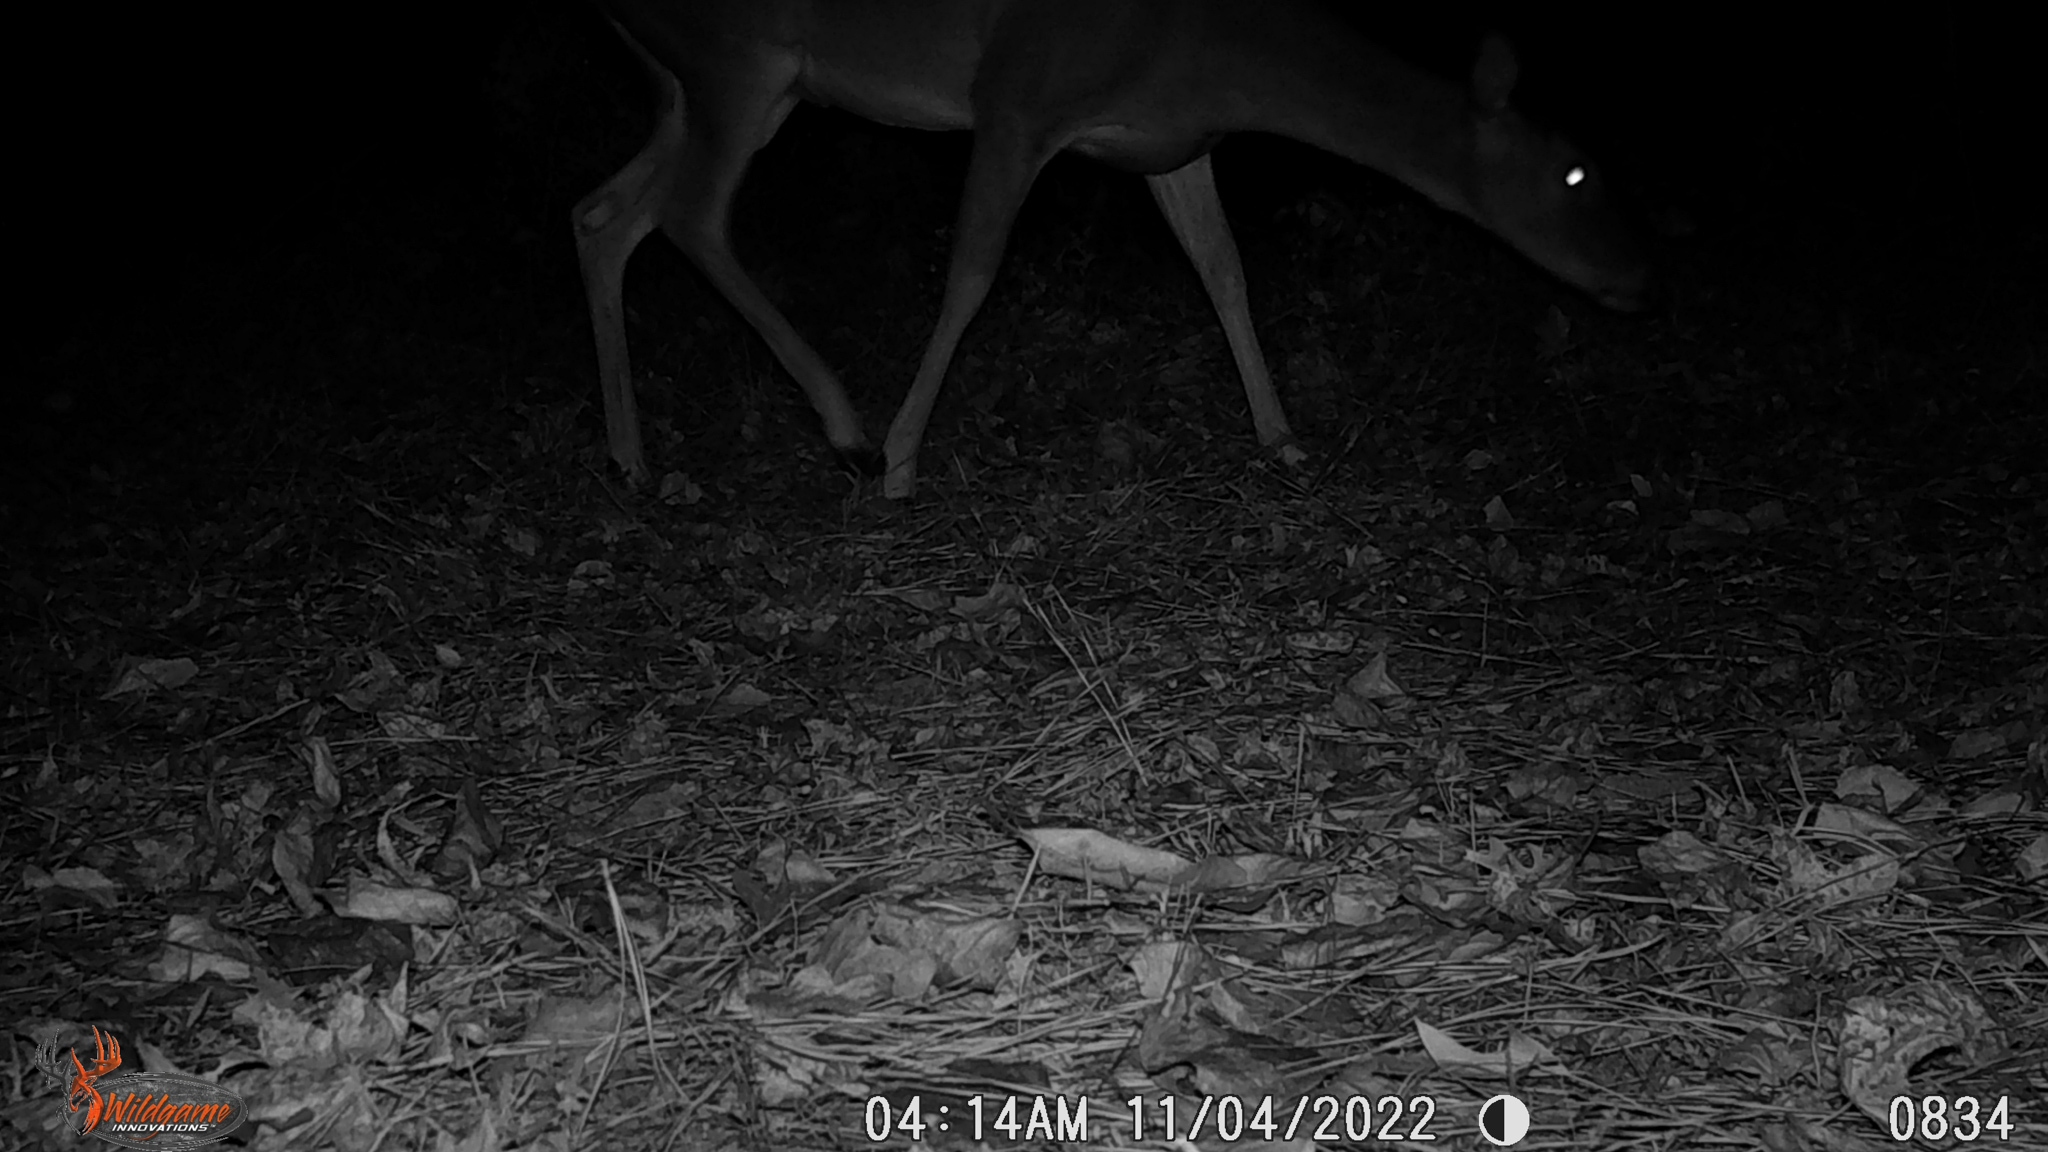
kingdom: Animalia
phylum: Chordata
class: Mammalia
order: Artiodactyla
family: Cervidae
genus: Odocoileus
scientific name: Odocoileus virginianus
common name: White-tailed deer
